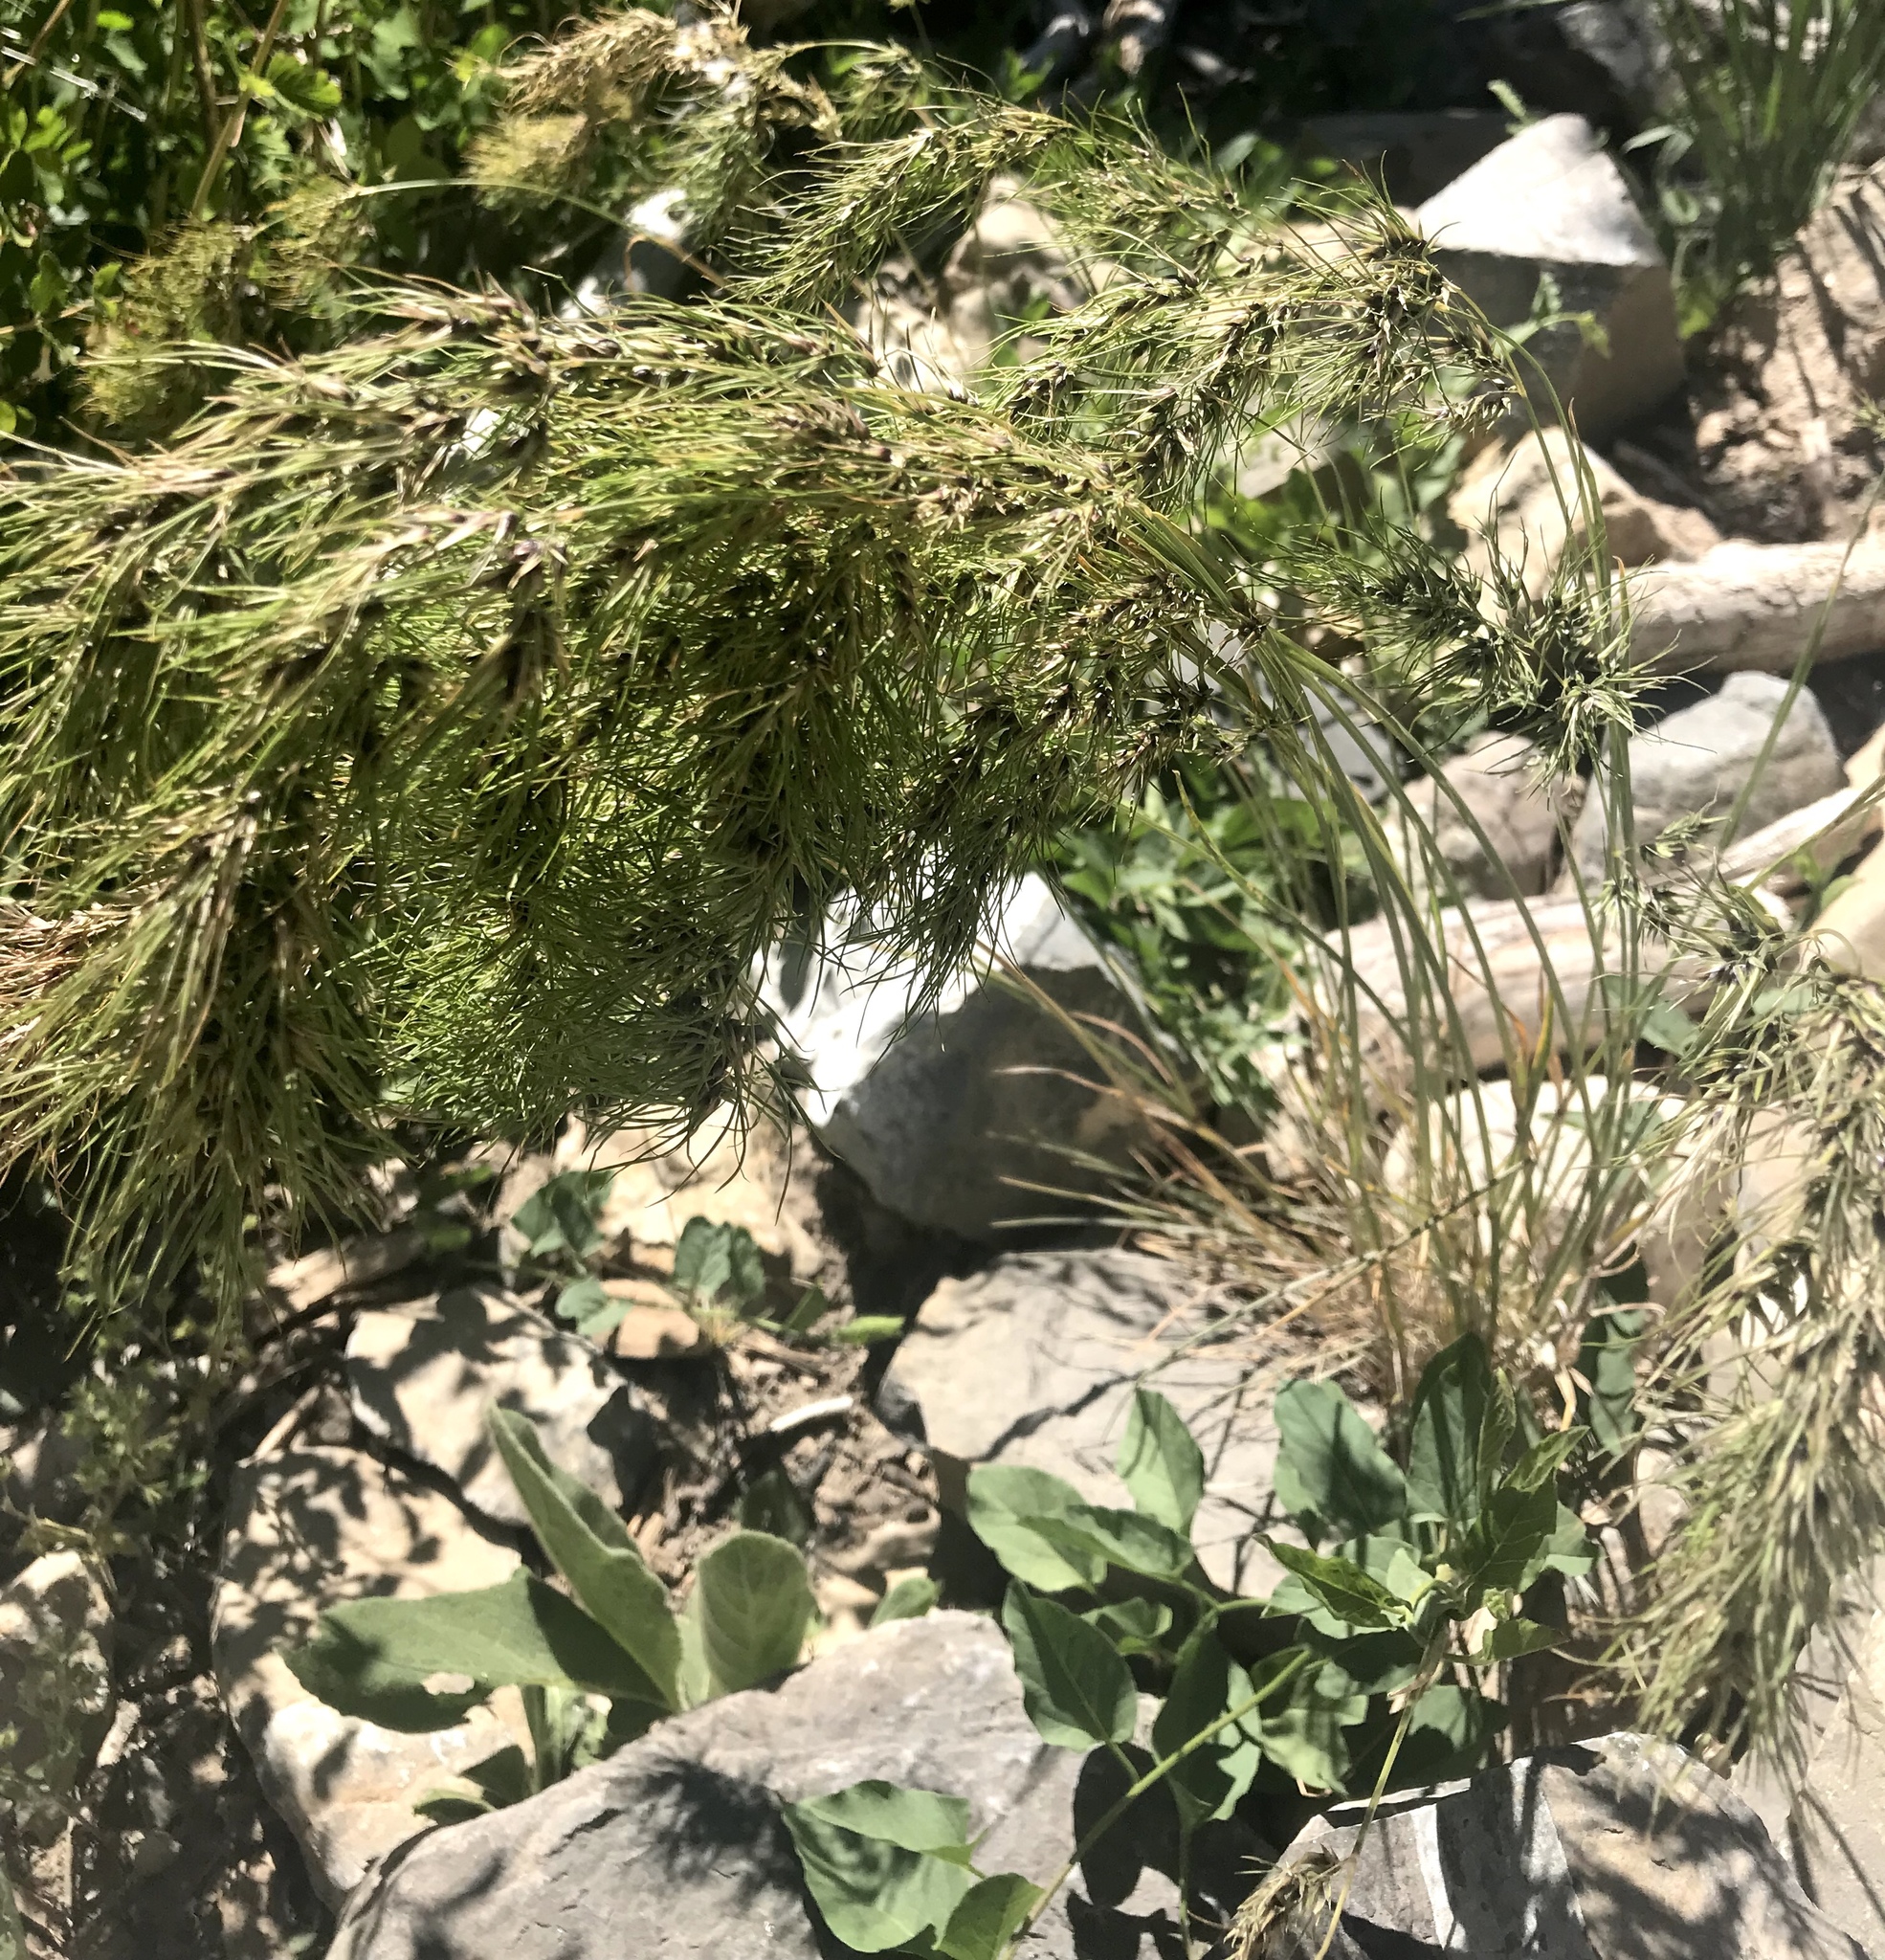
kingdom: Plantae
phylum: Tracheophyta
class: Liliopsida
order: Poales
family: Poaceae
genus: Poa
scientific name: Poa bulbosa
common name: Bulbous bluegrass
